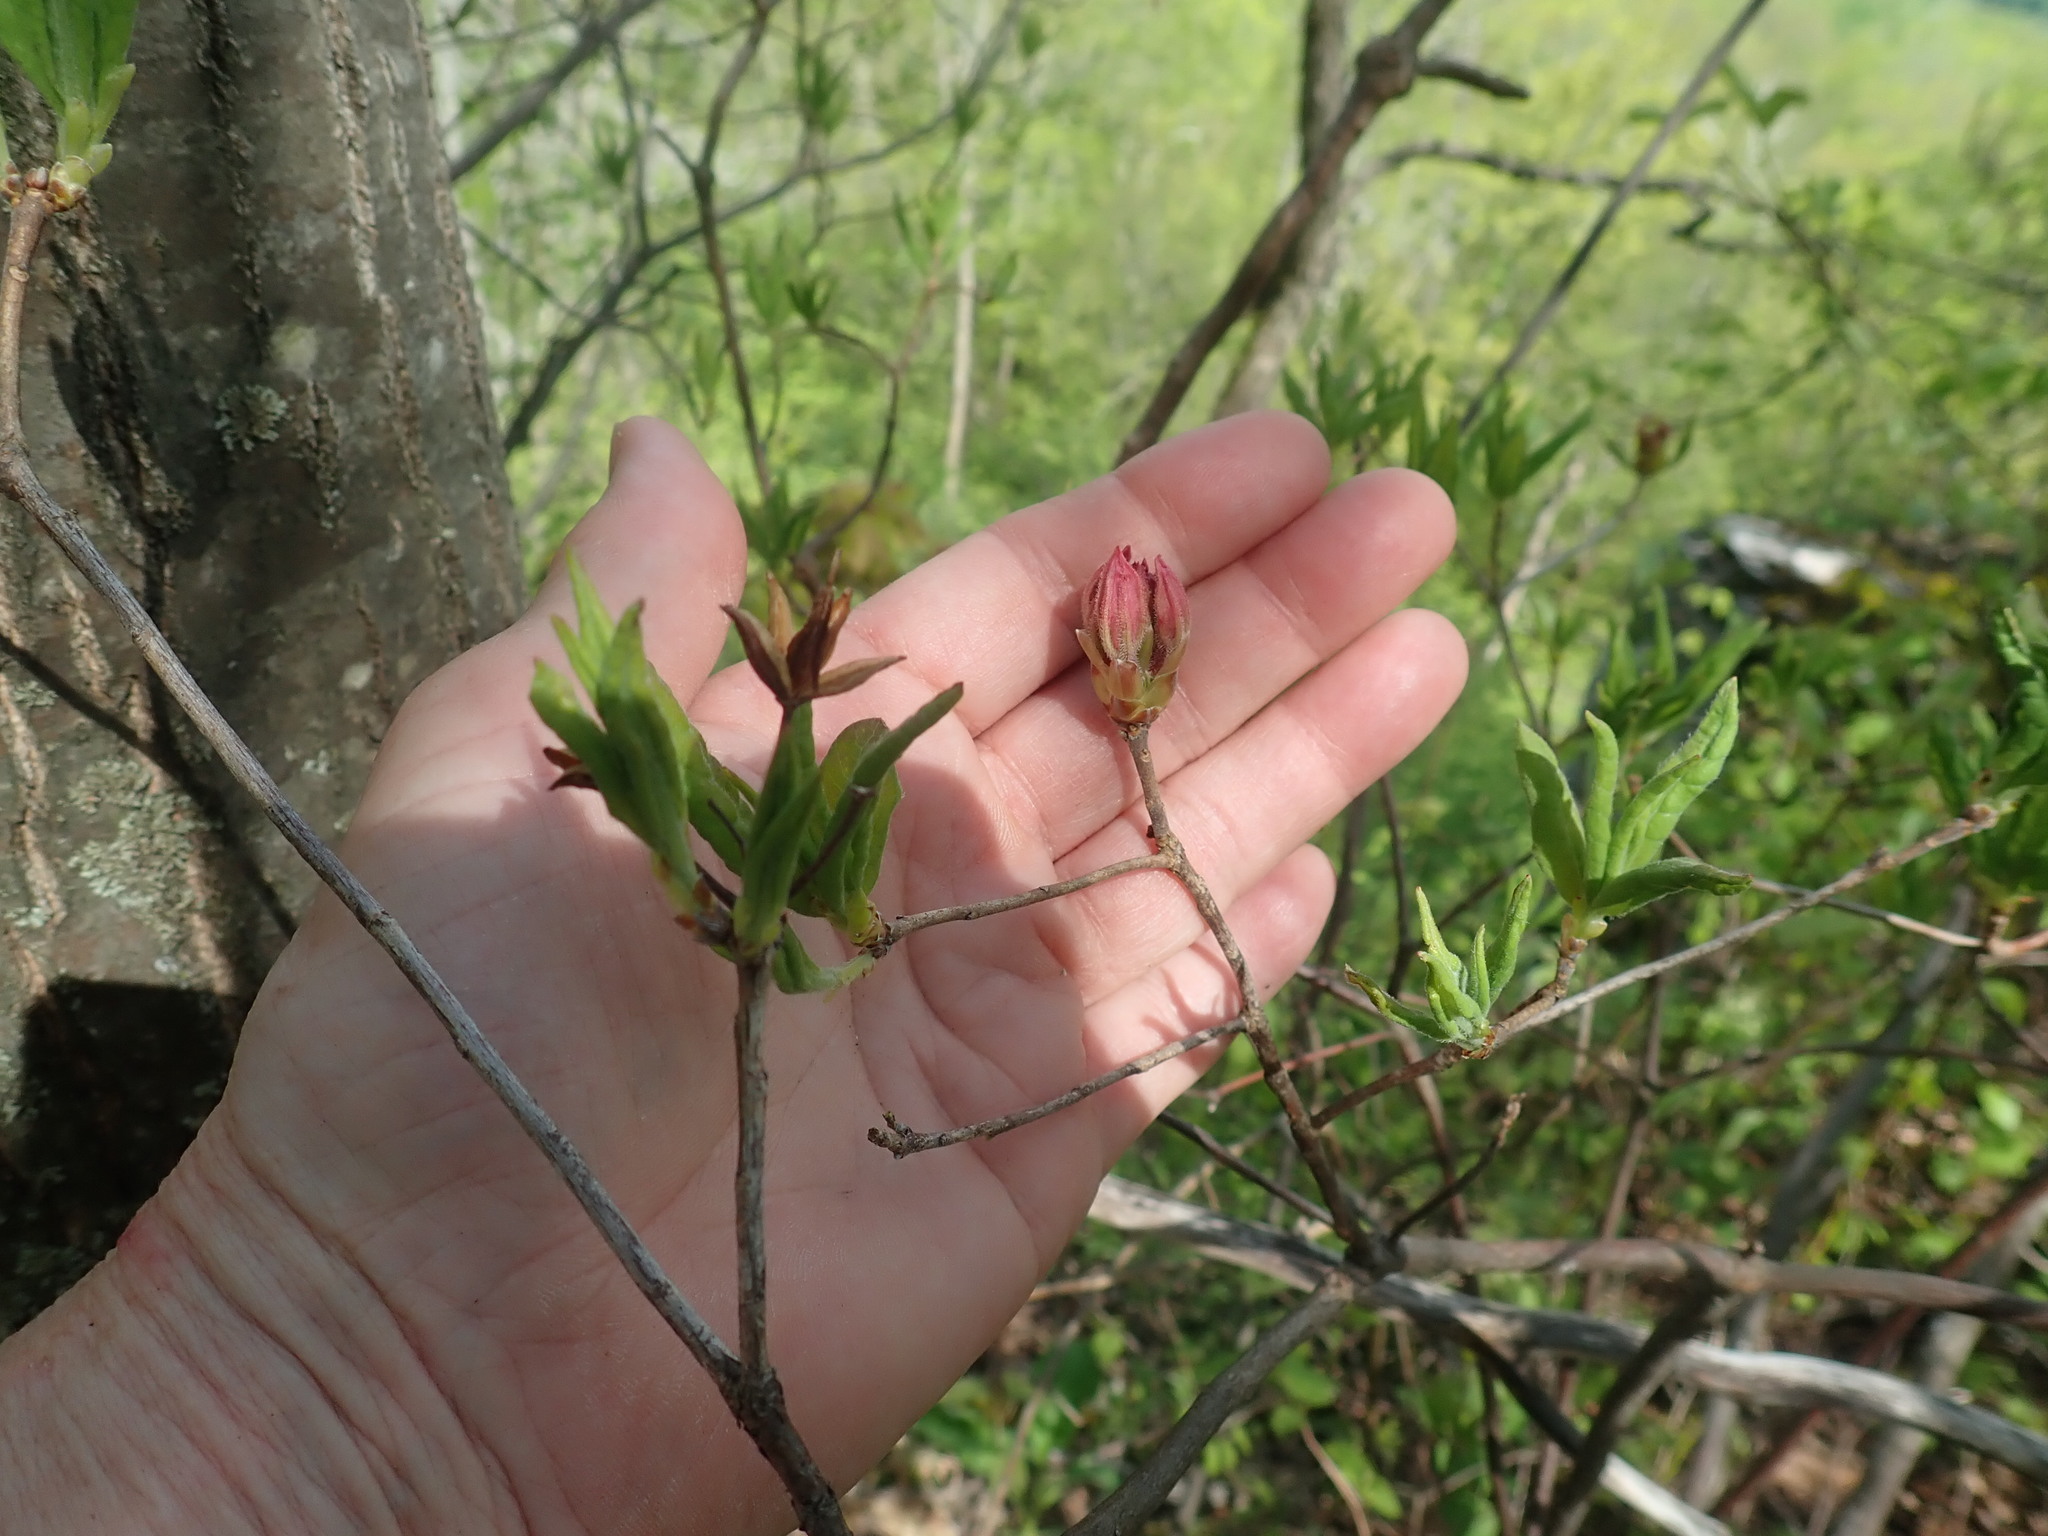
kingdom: Plantae
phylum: Tracheophyta
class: Magnoliopsida
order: Ericales
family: Ericaceae
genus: Rhododendron
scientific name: Rhododendron roseum
